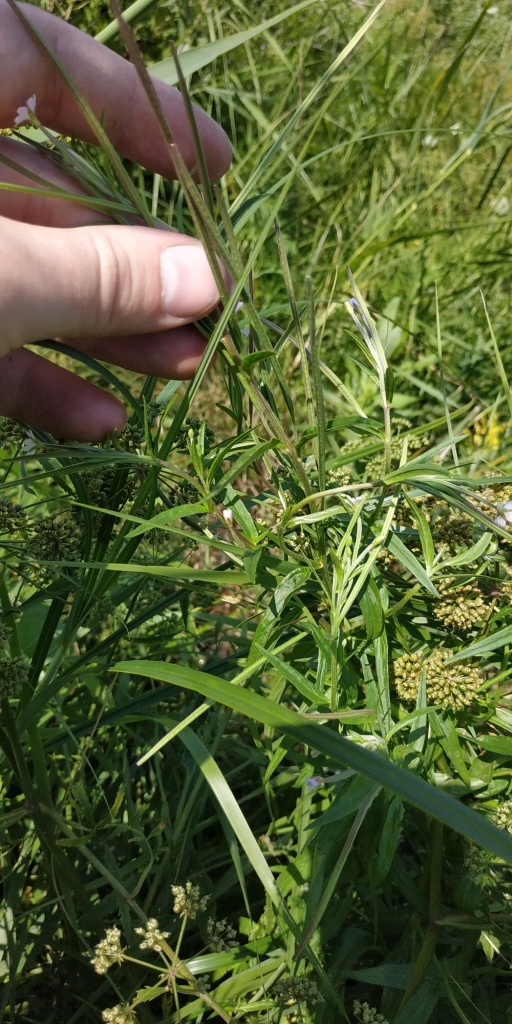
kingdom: Plantae
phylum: Tracheophyta
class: Magnoliopsida
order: Myrtales
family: Onagraceae
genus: Epilobium
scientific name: Epilobium palustre
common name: Marsh willowherb
